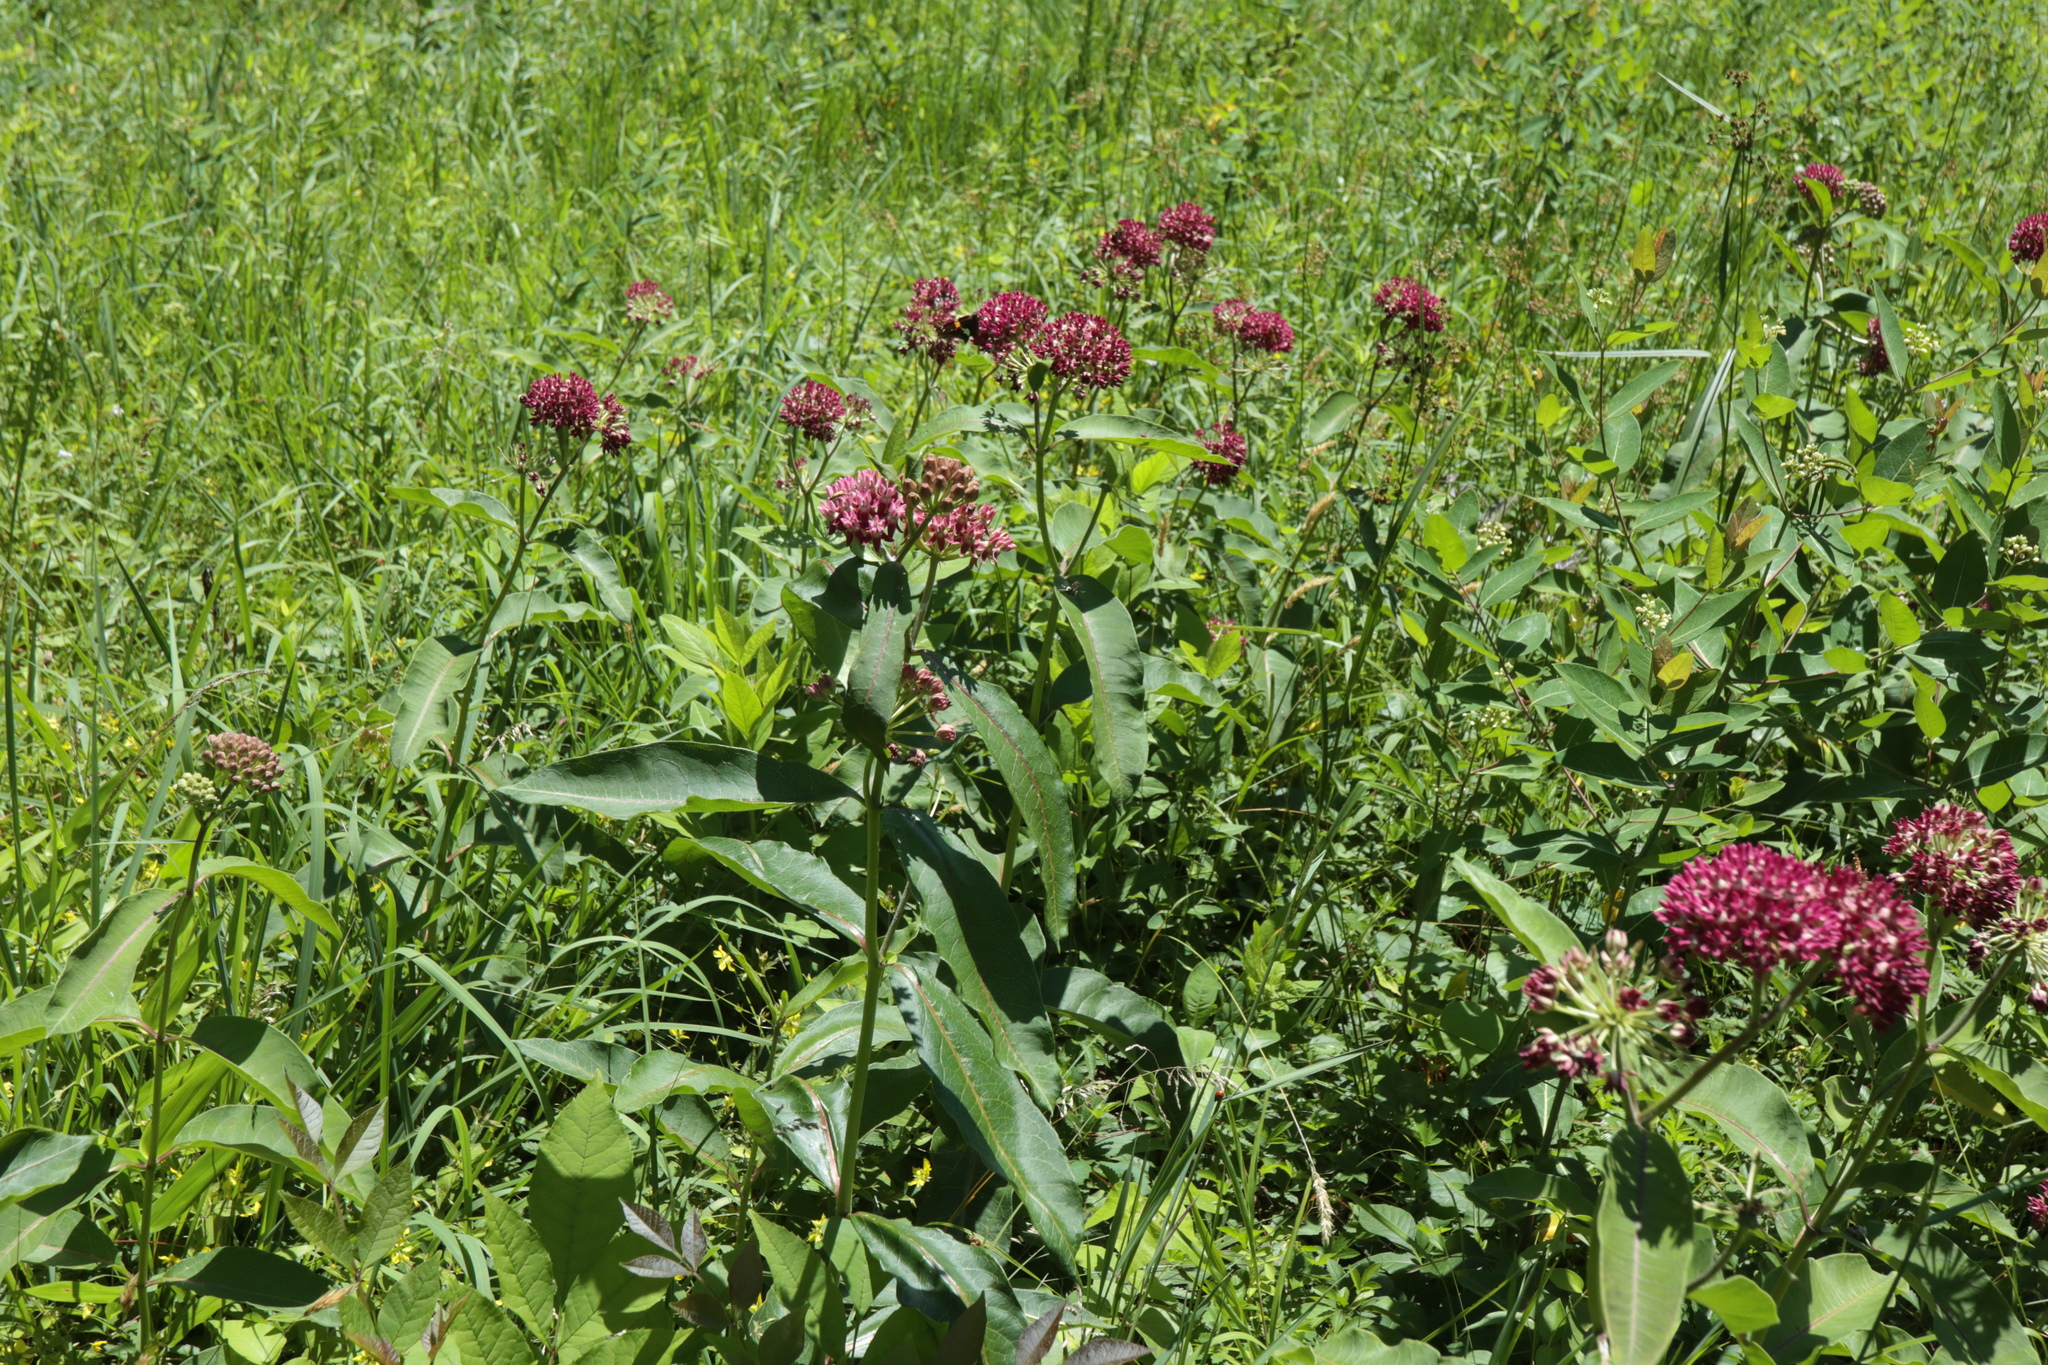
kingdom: Plantae
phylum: Tracheophyta
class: Magnoliopsida
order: Gentianales
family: Apocynaceae
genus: Asclepias
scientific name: Asclepias purpurascens
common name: Purple milkweed
